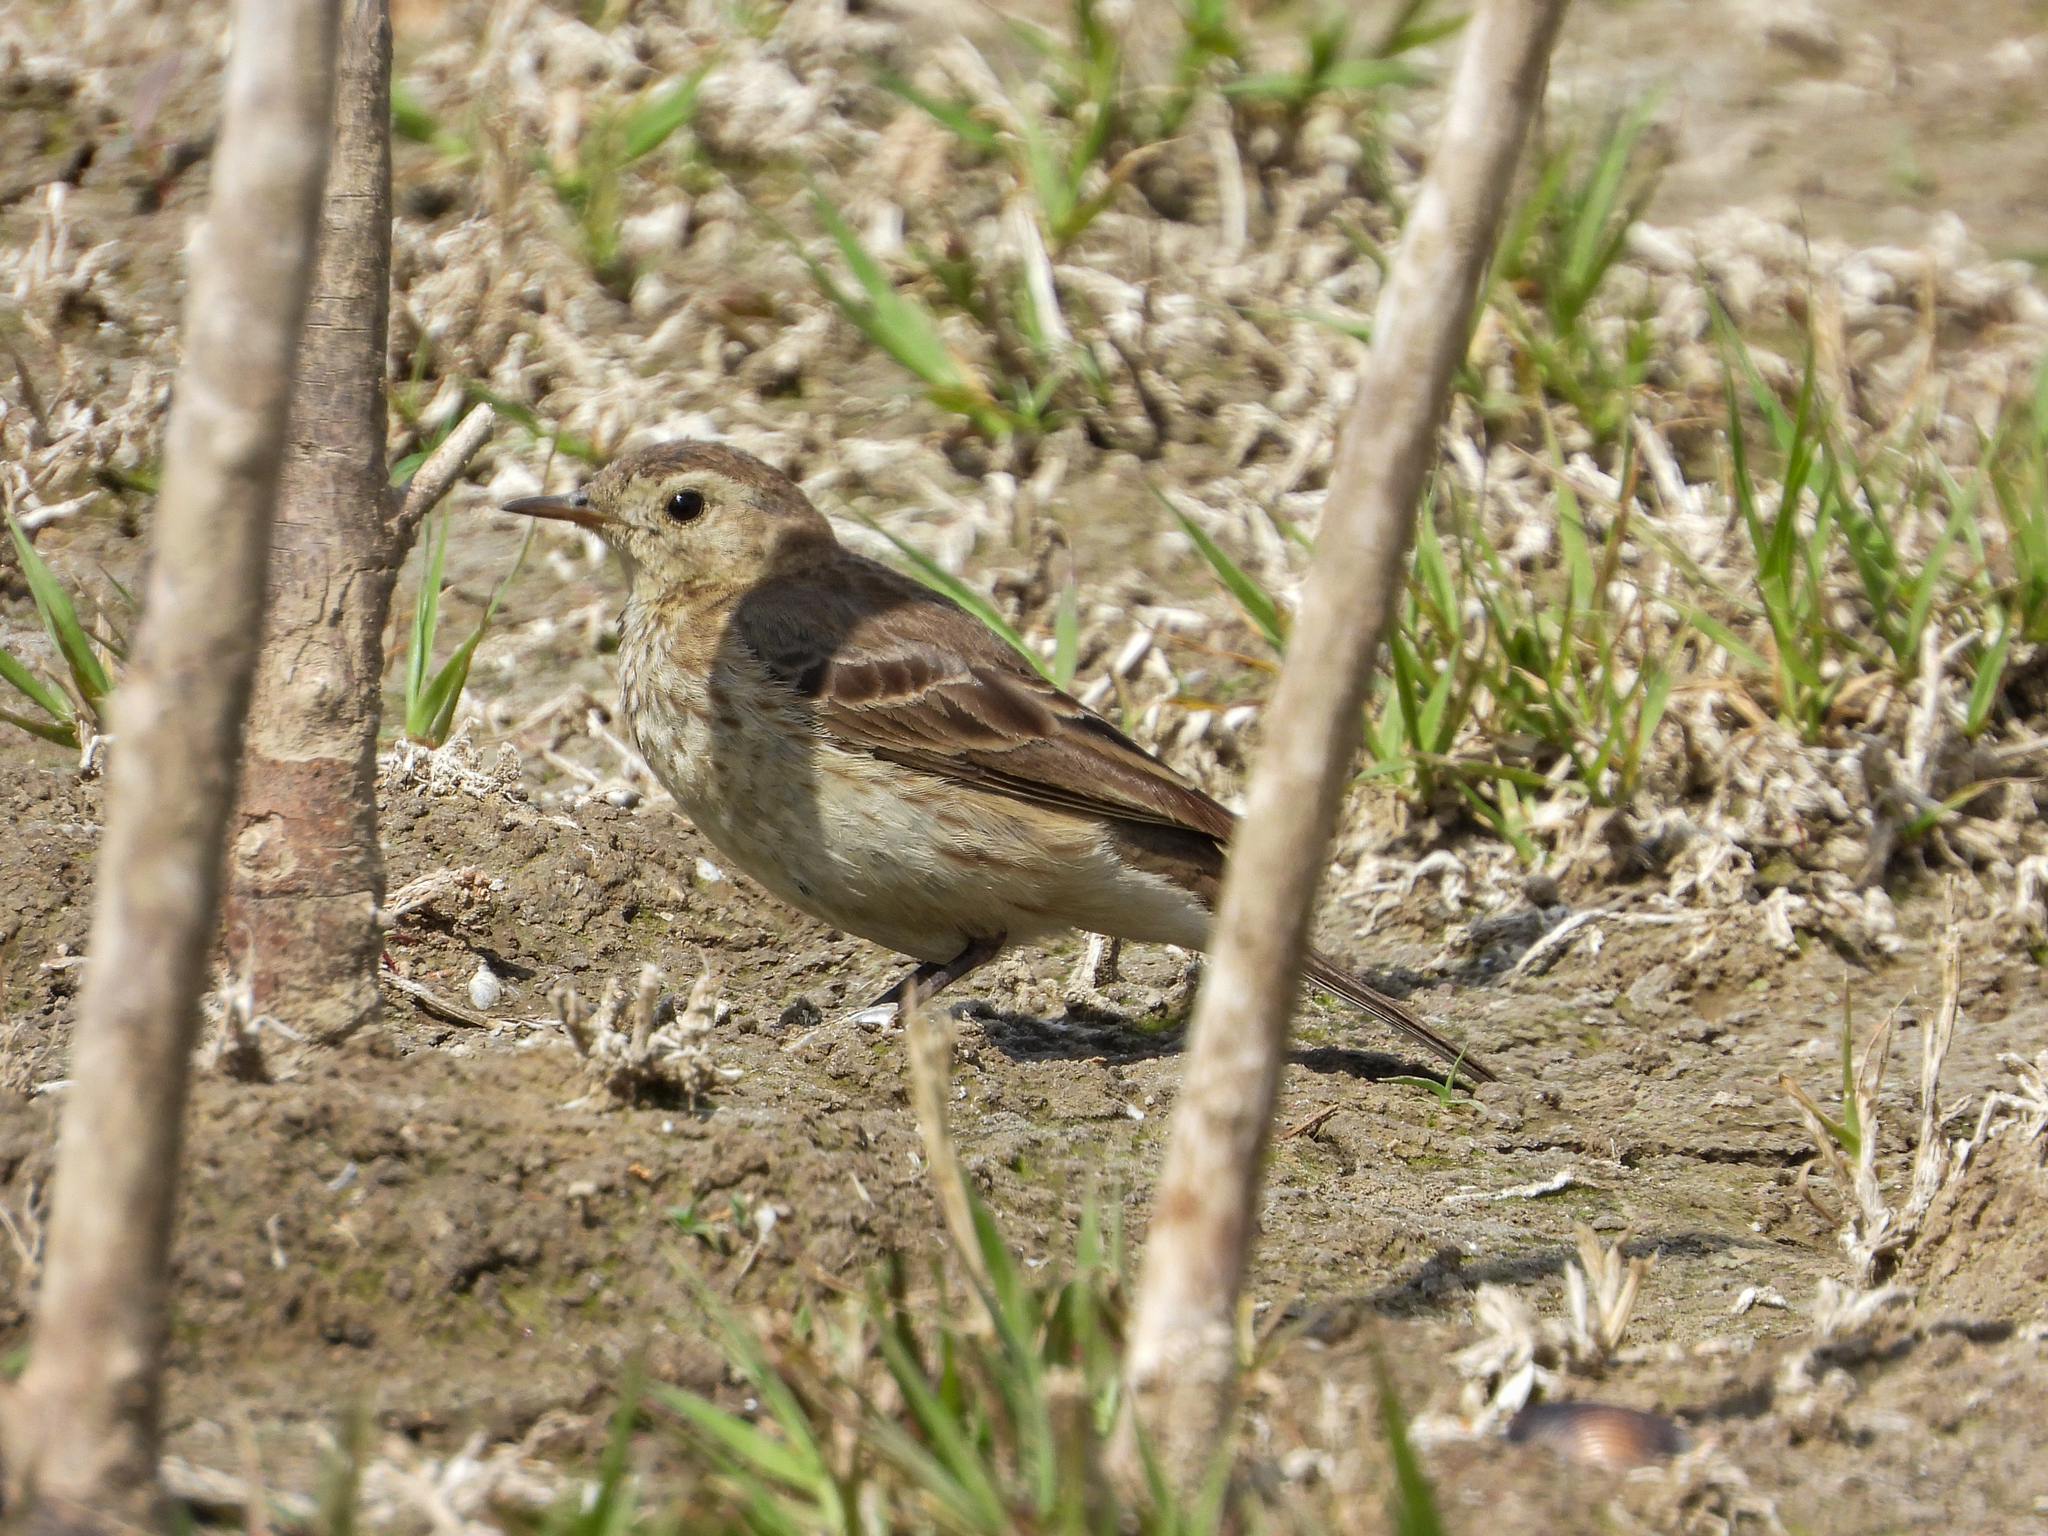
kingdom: Animalia
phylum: Chordata
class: Aves
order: Passeriformes
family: Motacillidae
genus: Anthus
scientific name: Anthus rubescens
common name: Buff-bellied pipit
